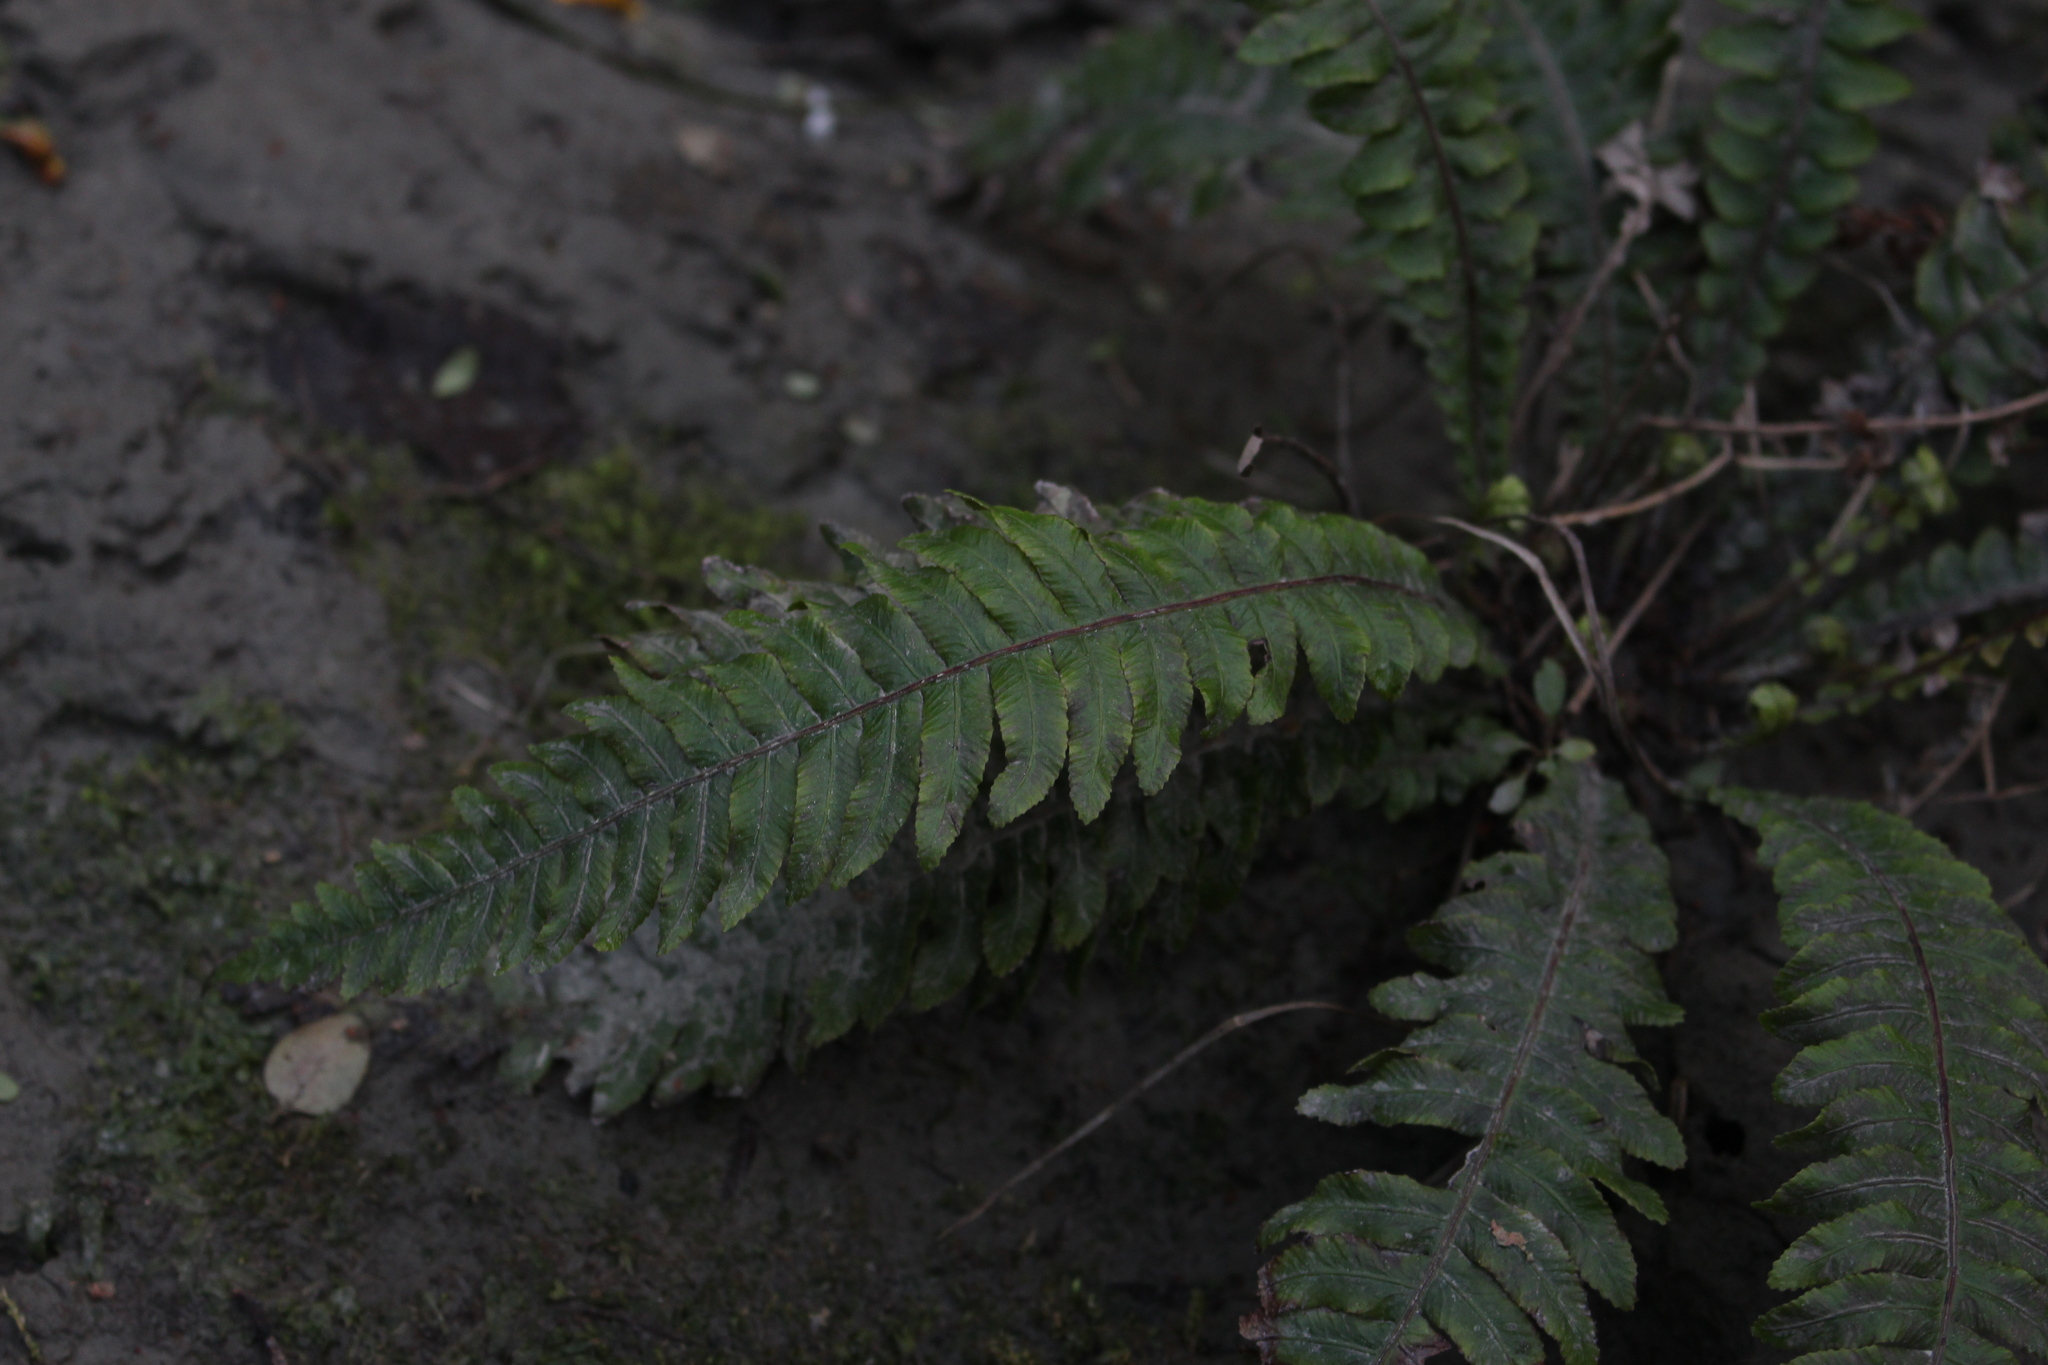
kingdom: Plantae
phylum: Tracheophyta
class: Polypodiopsida
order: Polypodiales
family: Blechnaceae
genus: Austroblechnum
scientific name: Austroblechnum lanceolatum
